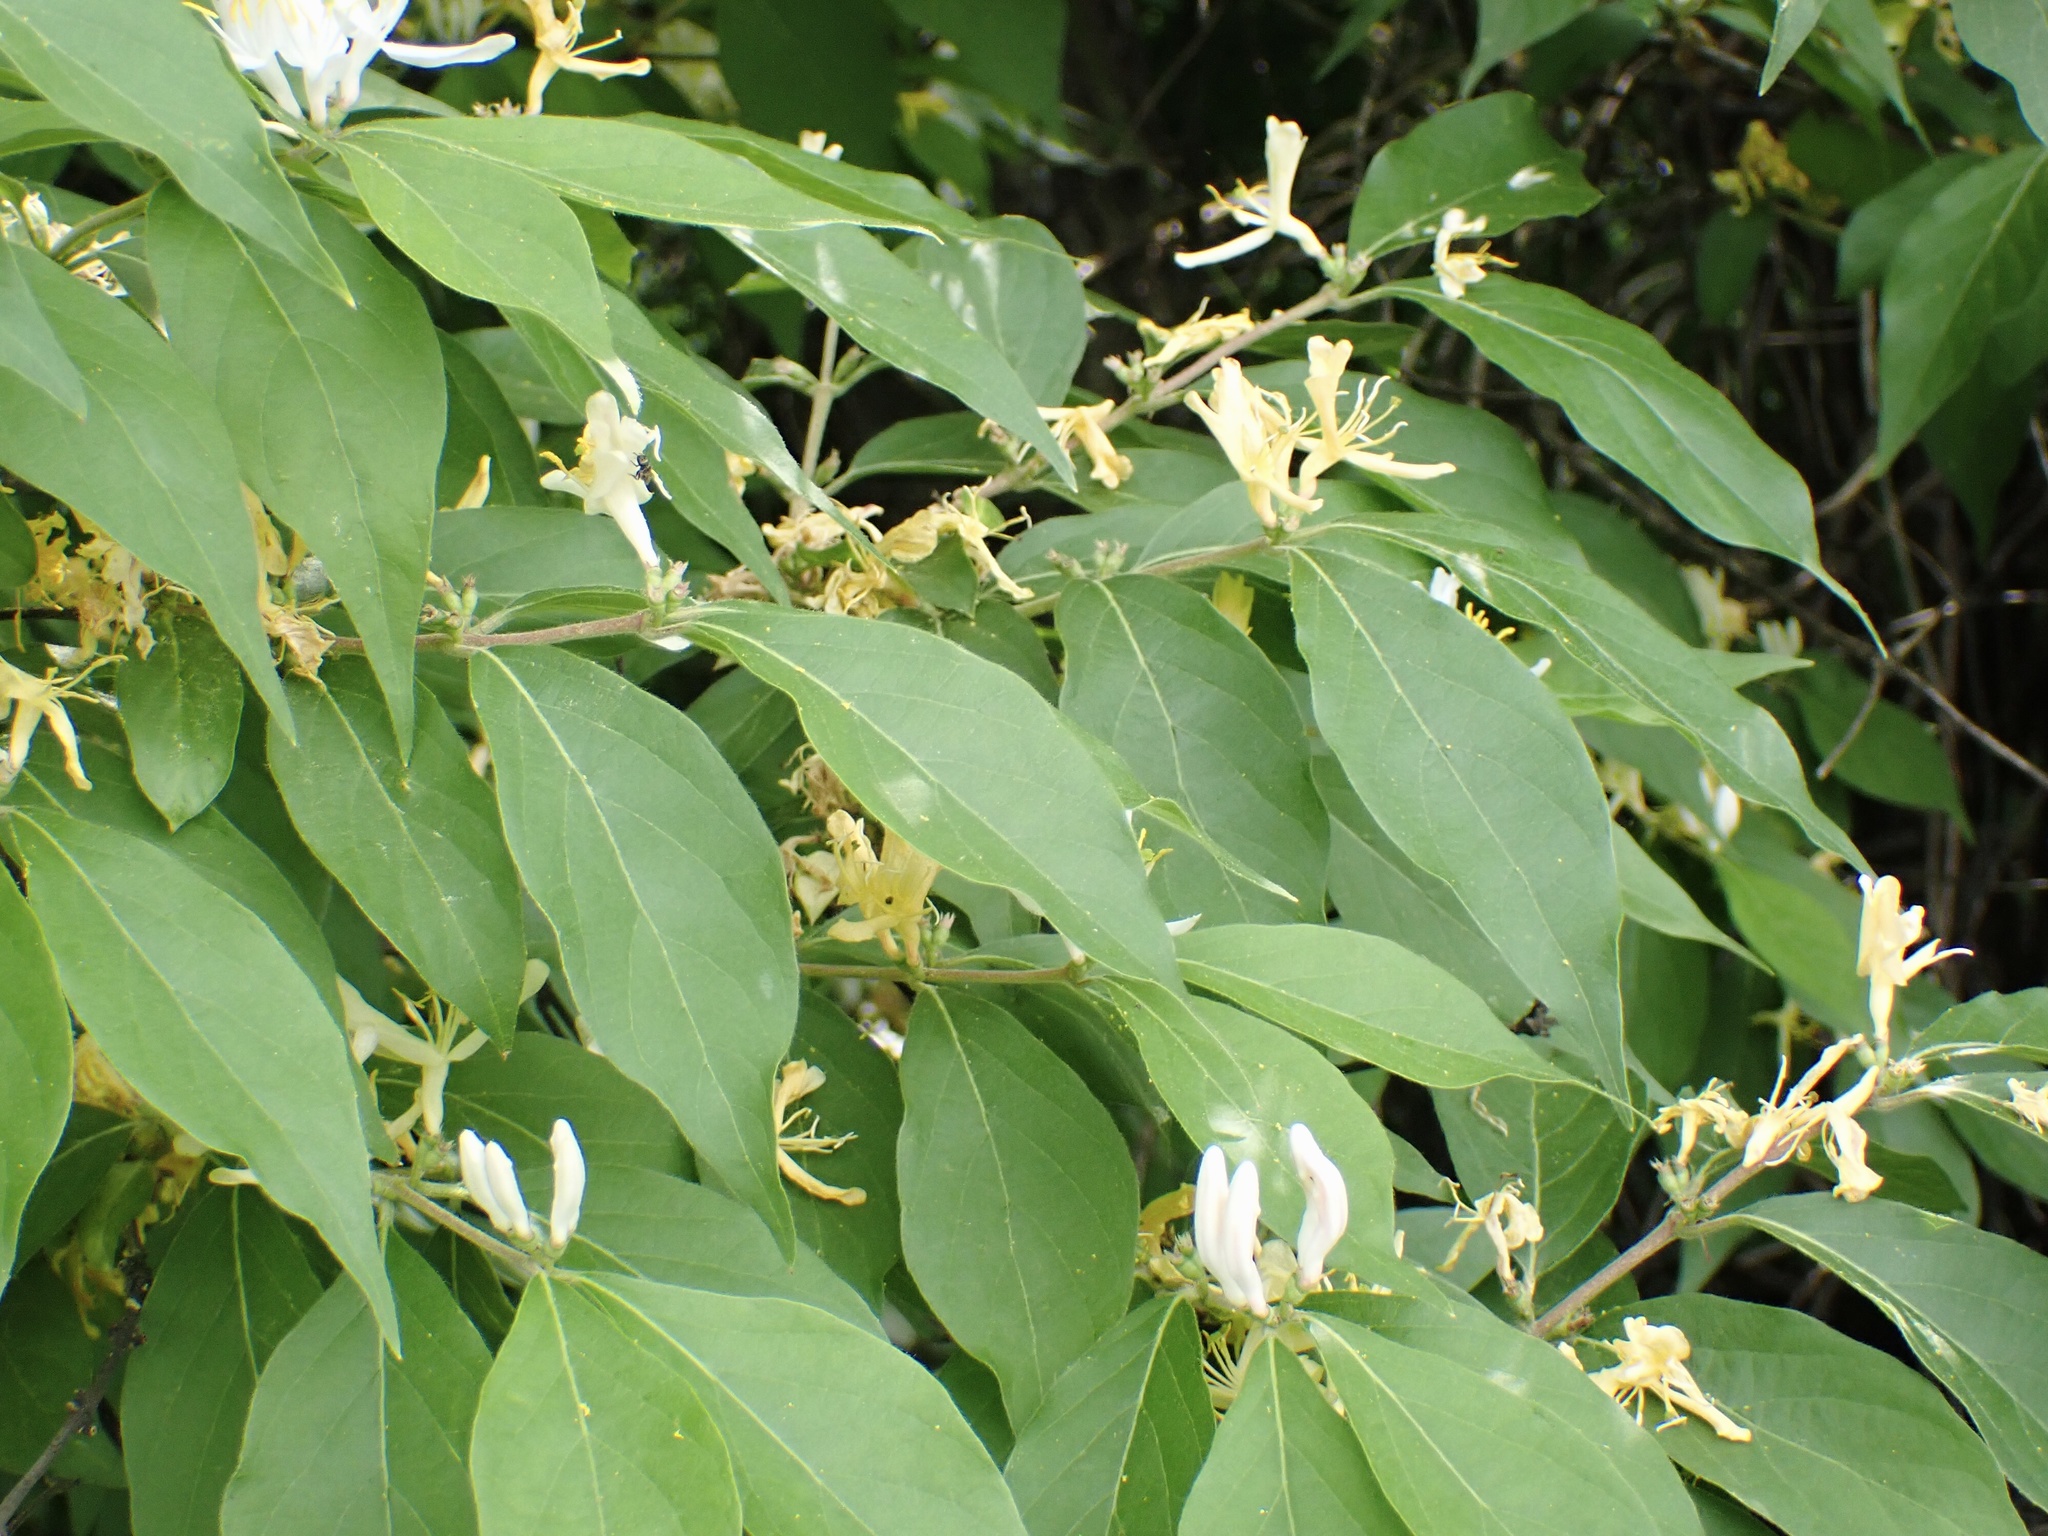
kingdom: Plantae
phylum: Tracheophyta
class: Magnoliopsida
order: Dipsacales
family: Caprifoliaceae
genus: Lonicera
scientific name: Lonicera maackii
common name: Amur honeysuckle
